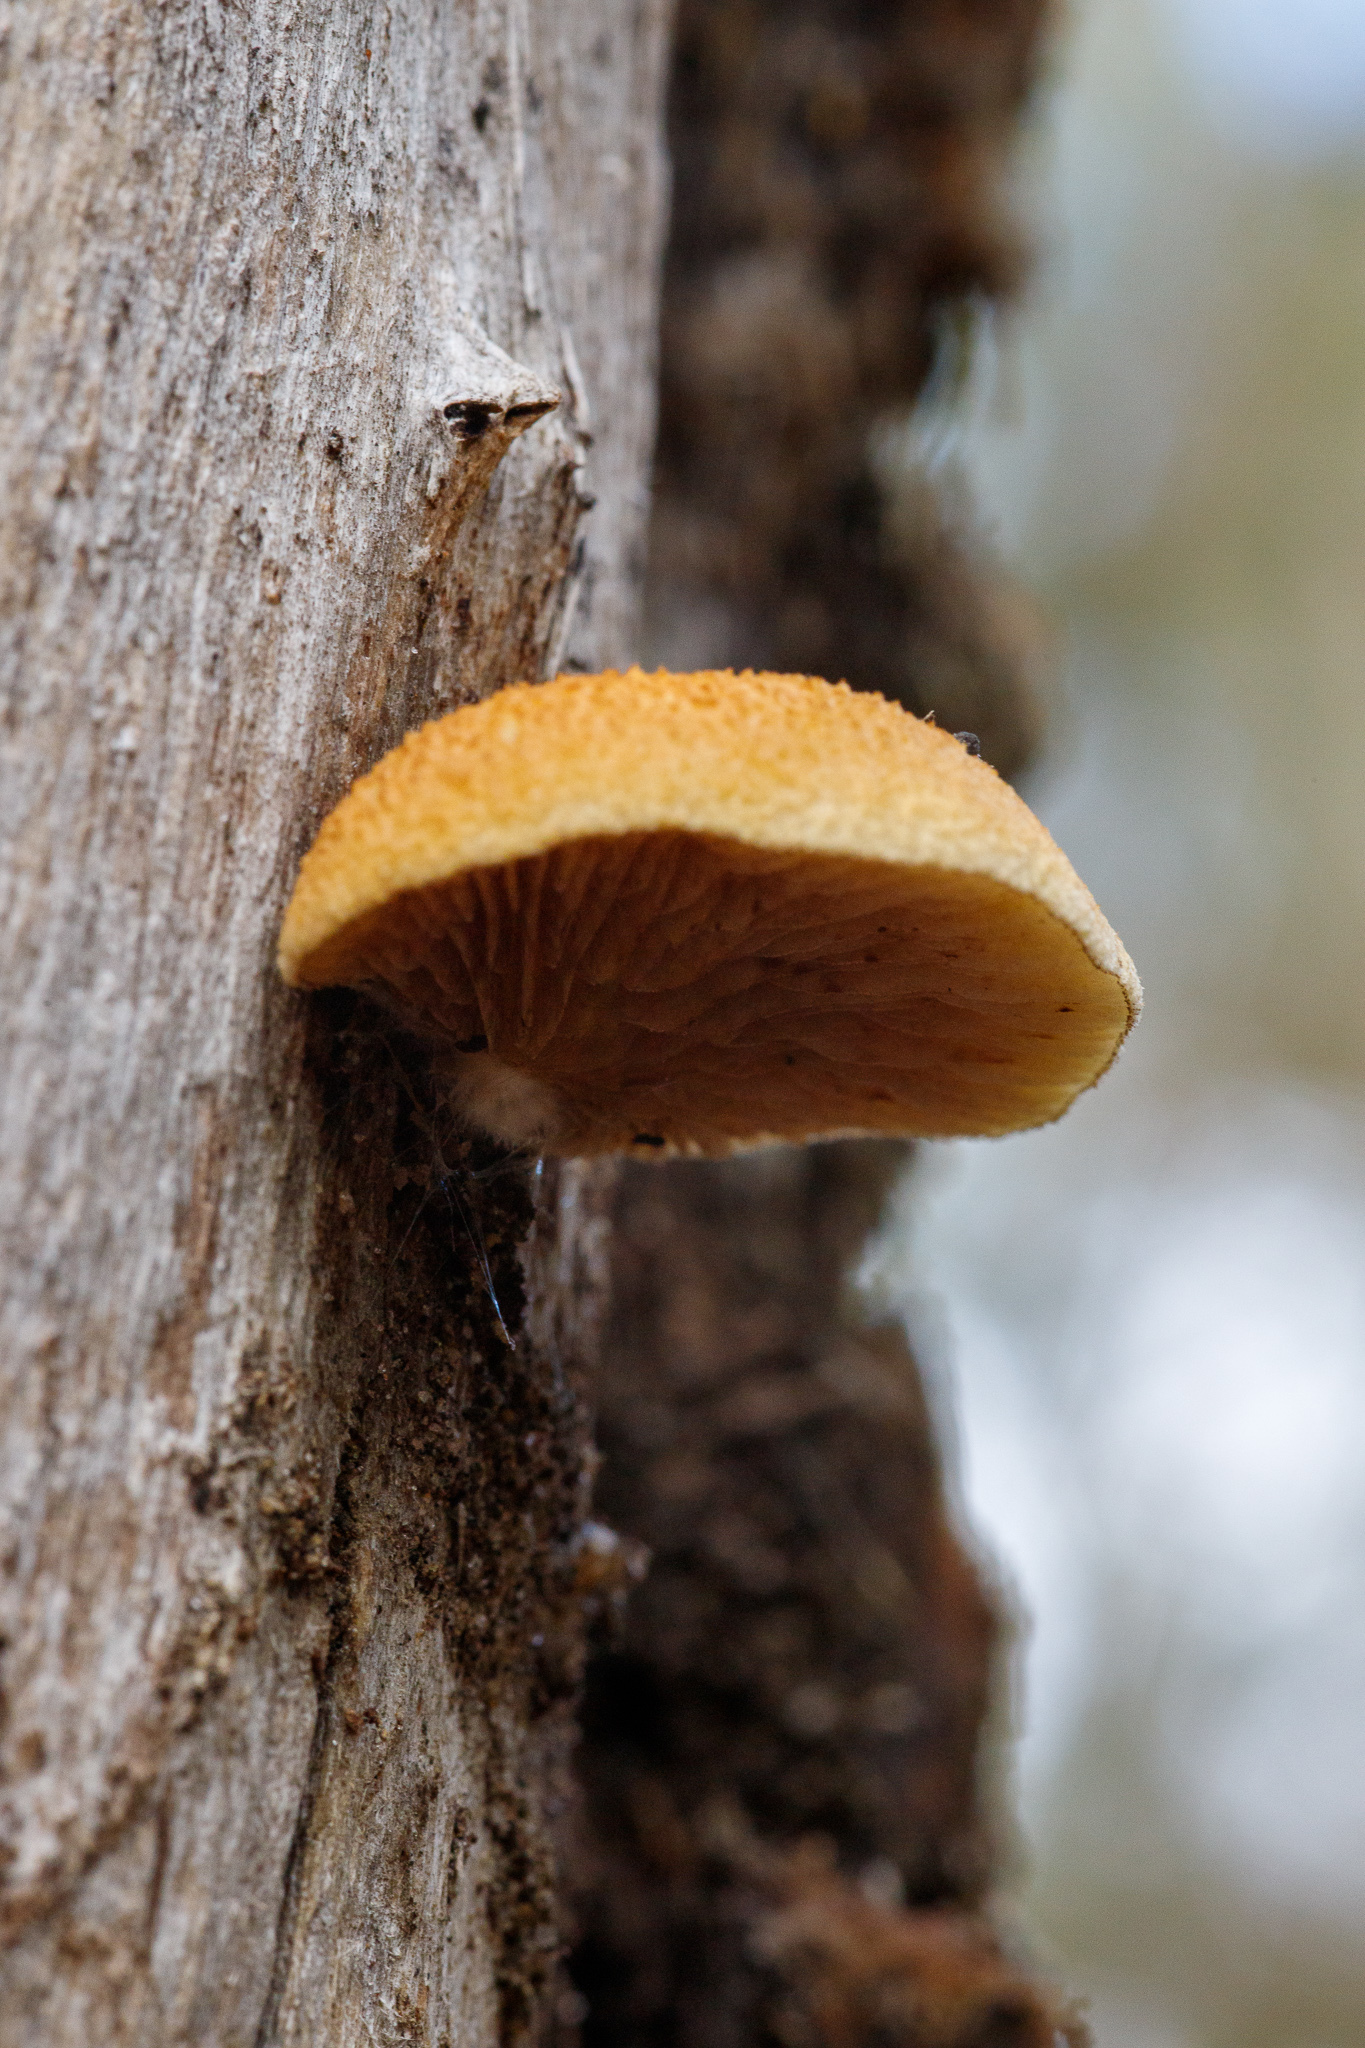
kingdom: Fungi
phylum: Basidiomycota
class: Agaricomycetes
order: Agaricales
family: Crepidotaceae
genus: Crepidotus
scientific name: Crepidotus eucalyptorum
